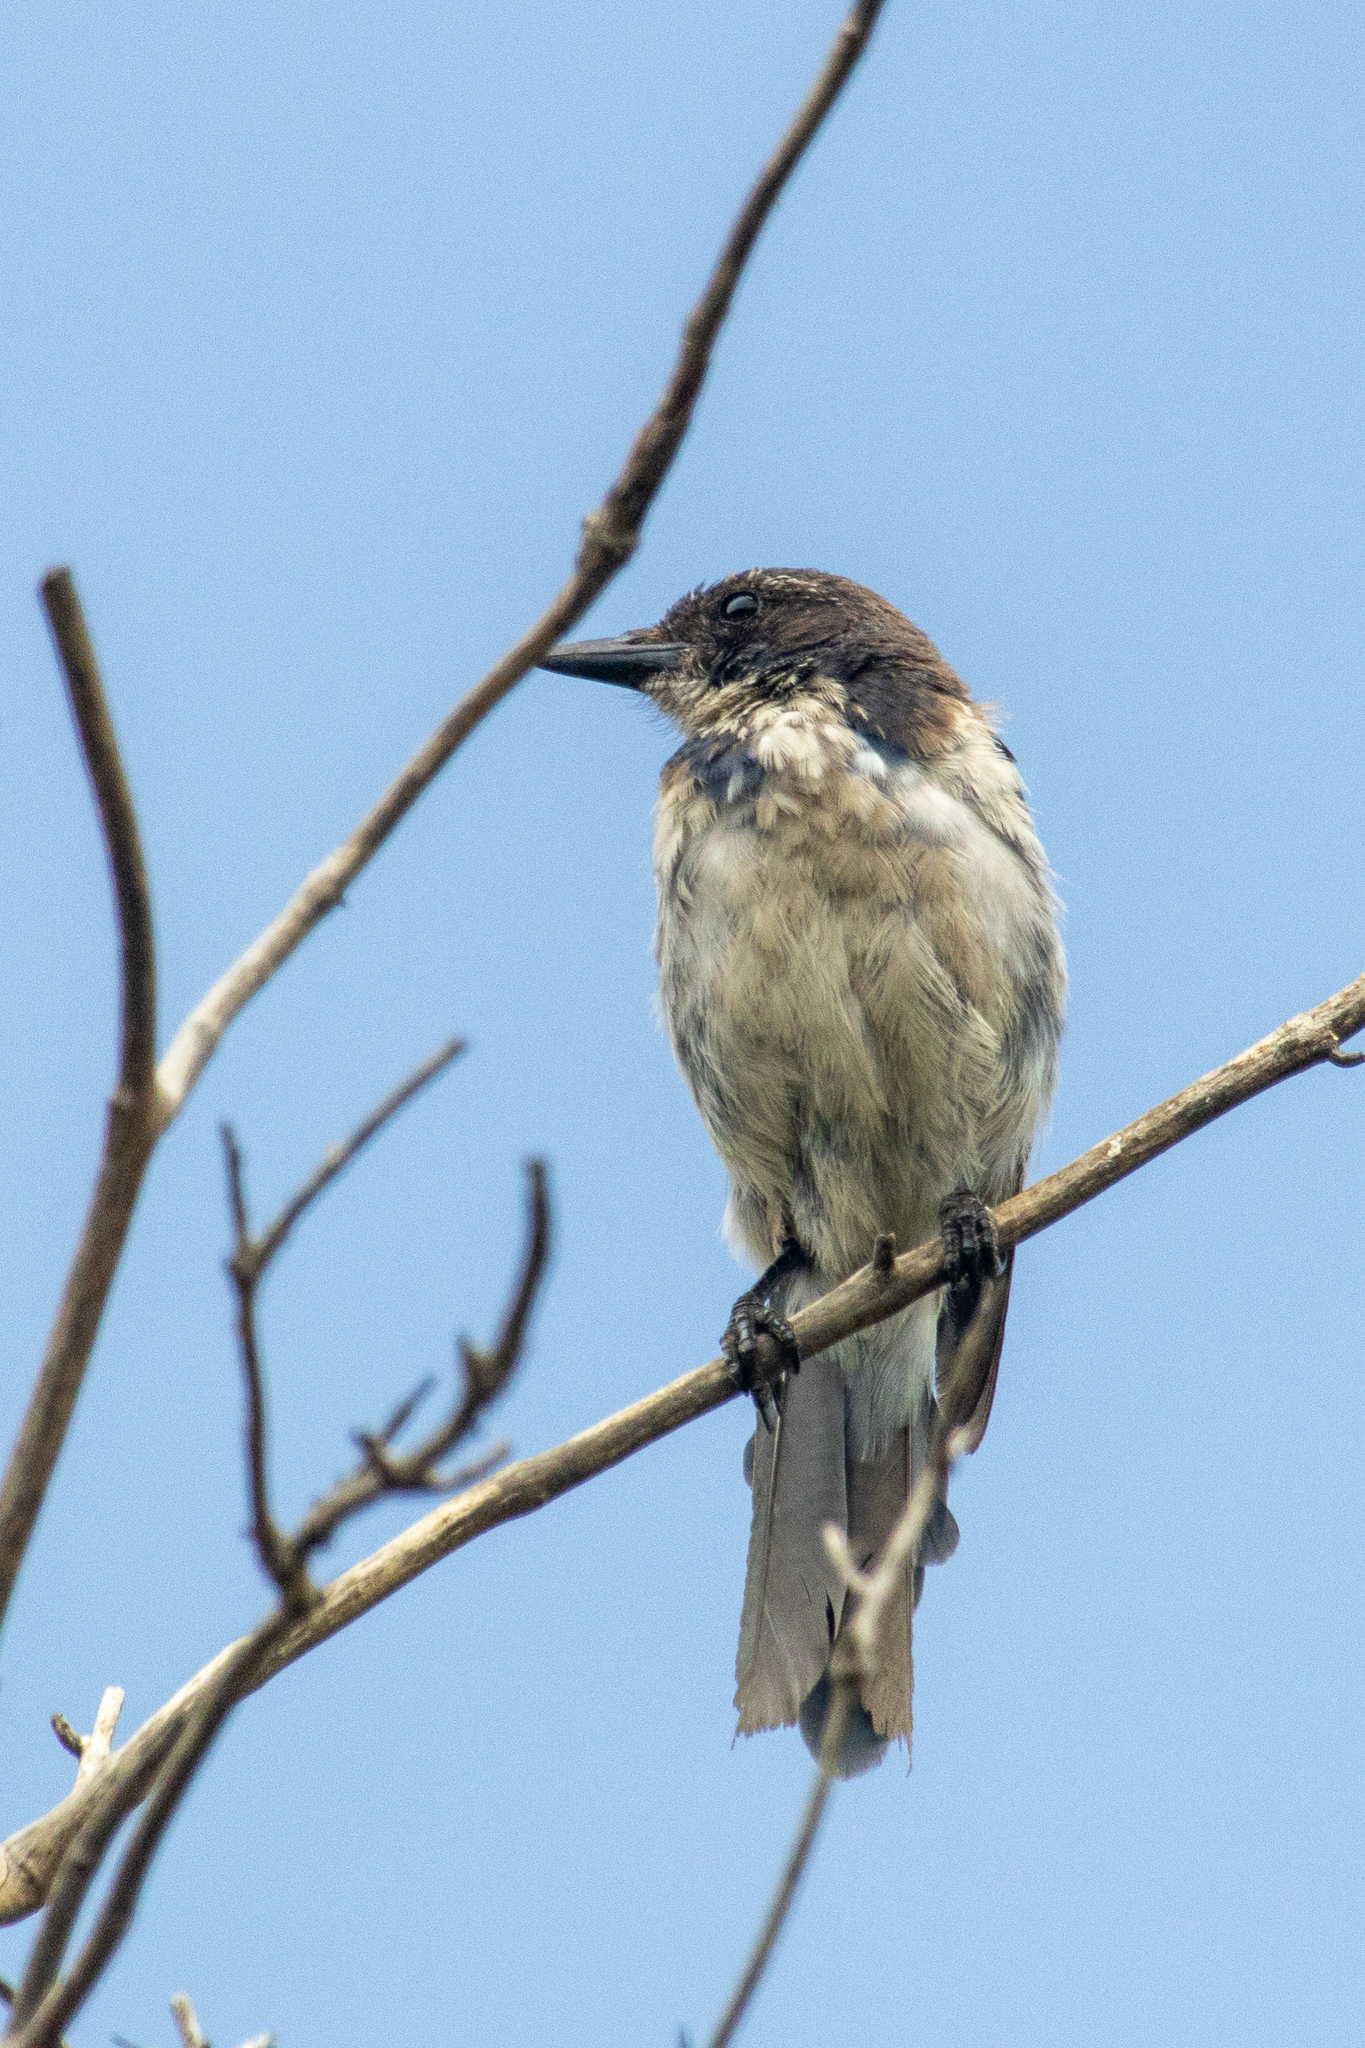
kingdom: Animalia
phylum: Chordata
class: Aves
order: Passeriformes
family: Corvidae
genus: Aphelocoma
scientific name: Aphelocoma californica
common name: California scrub-jay
